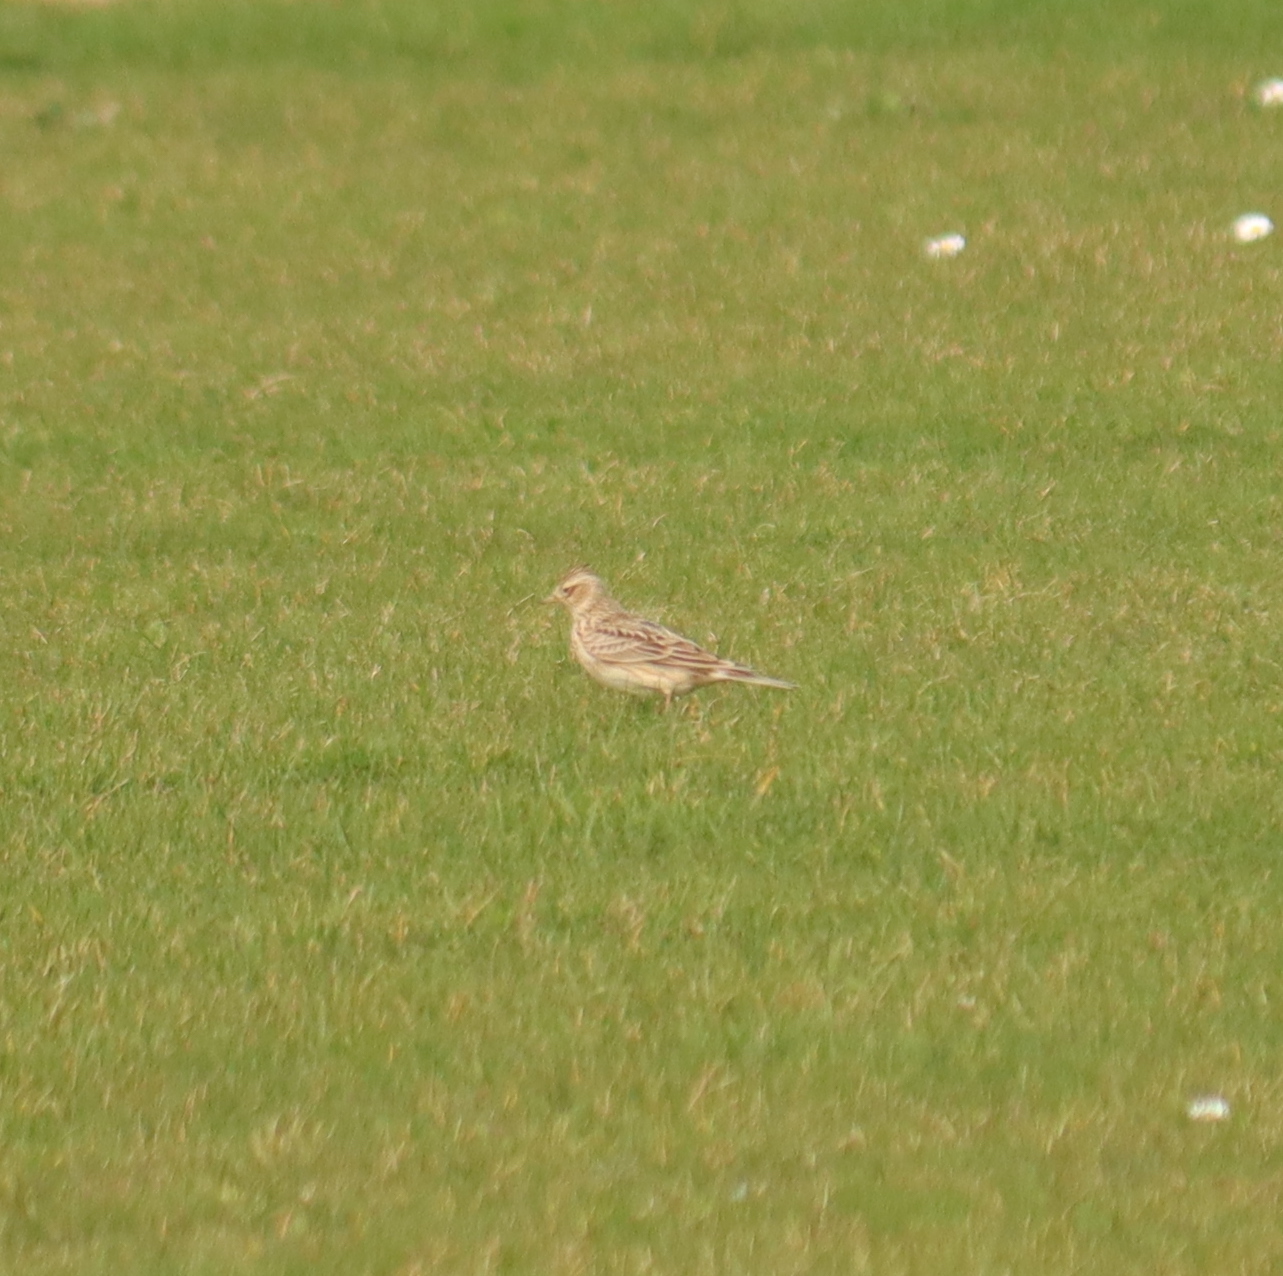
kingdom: Animalia
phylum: Chordata
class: Aves
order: Passeriformes
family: Alaudidae
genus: Alauda
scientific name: Alauda arvensis
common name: Eurasian skylark
